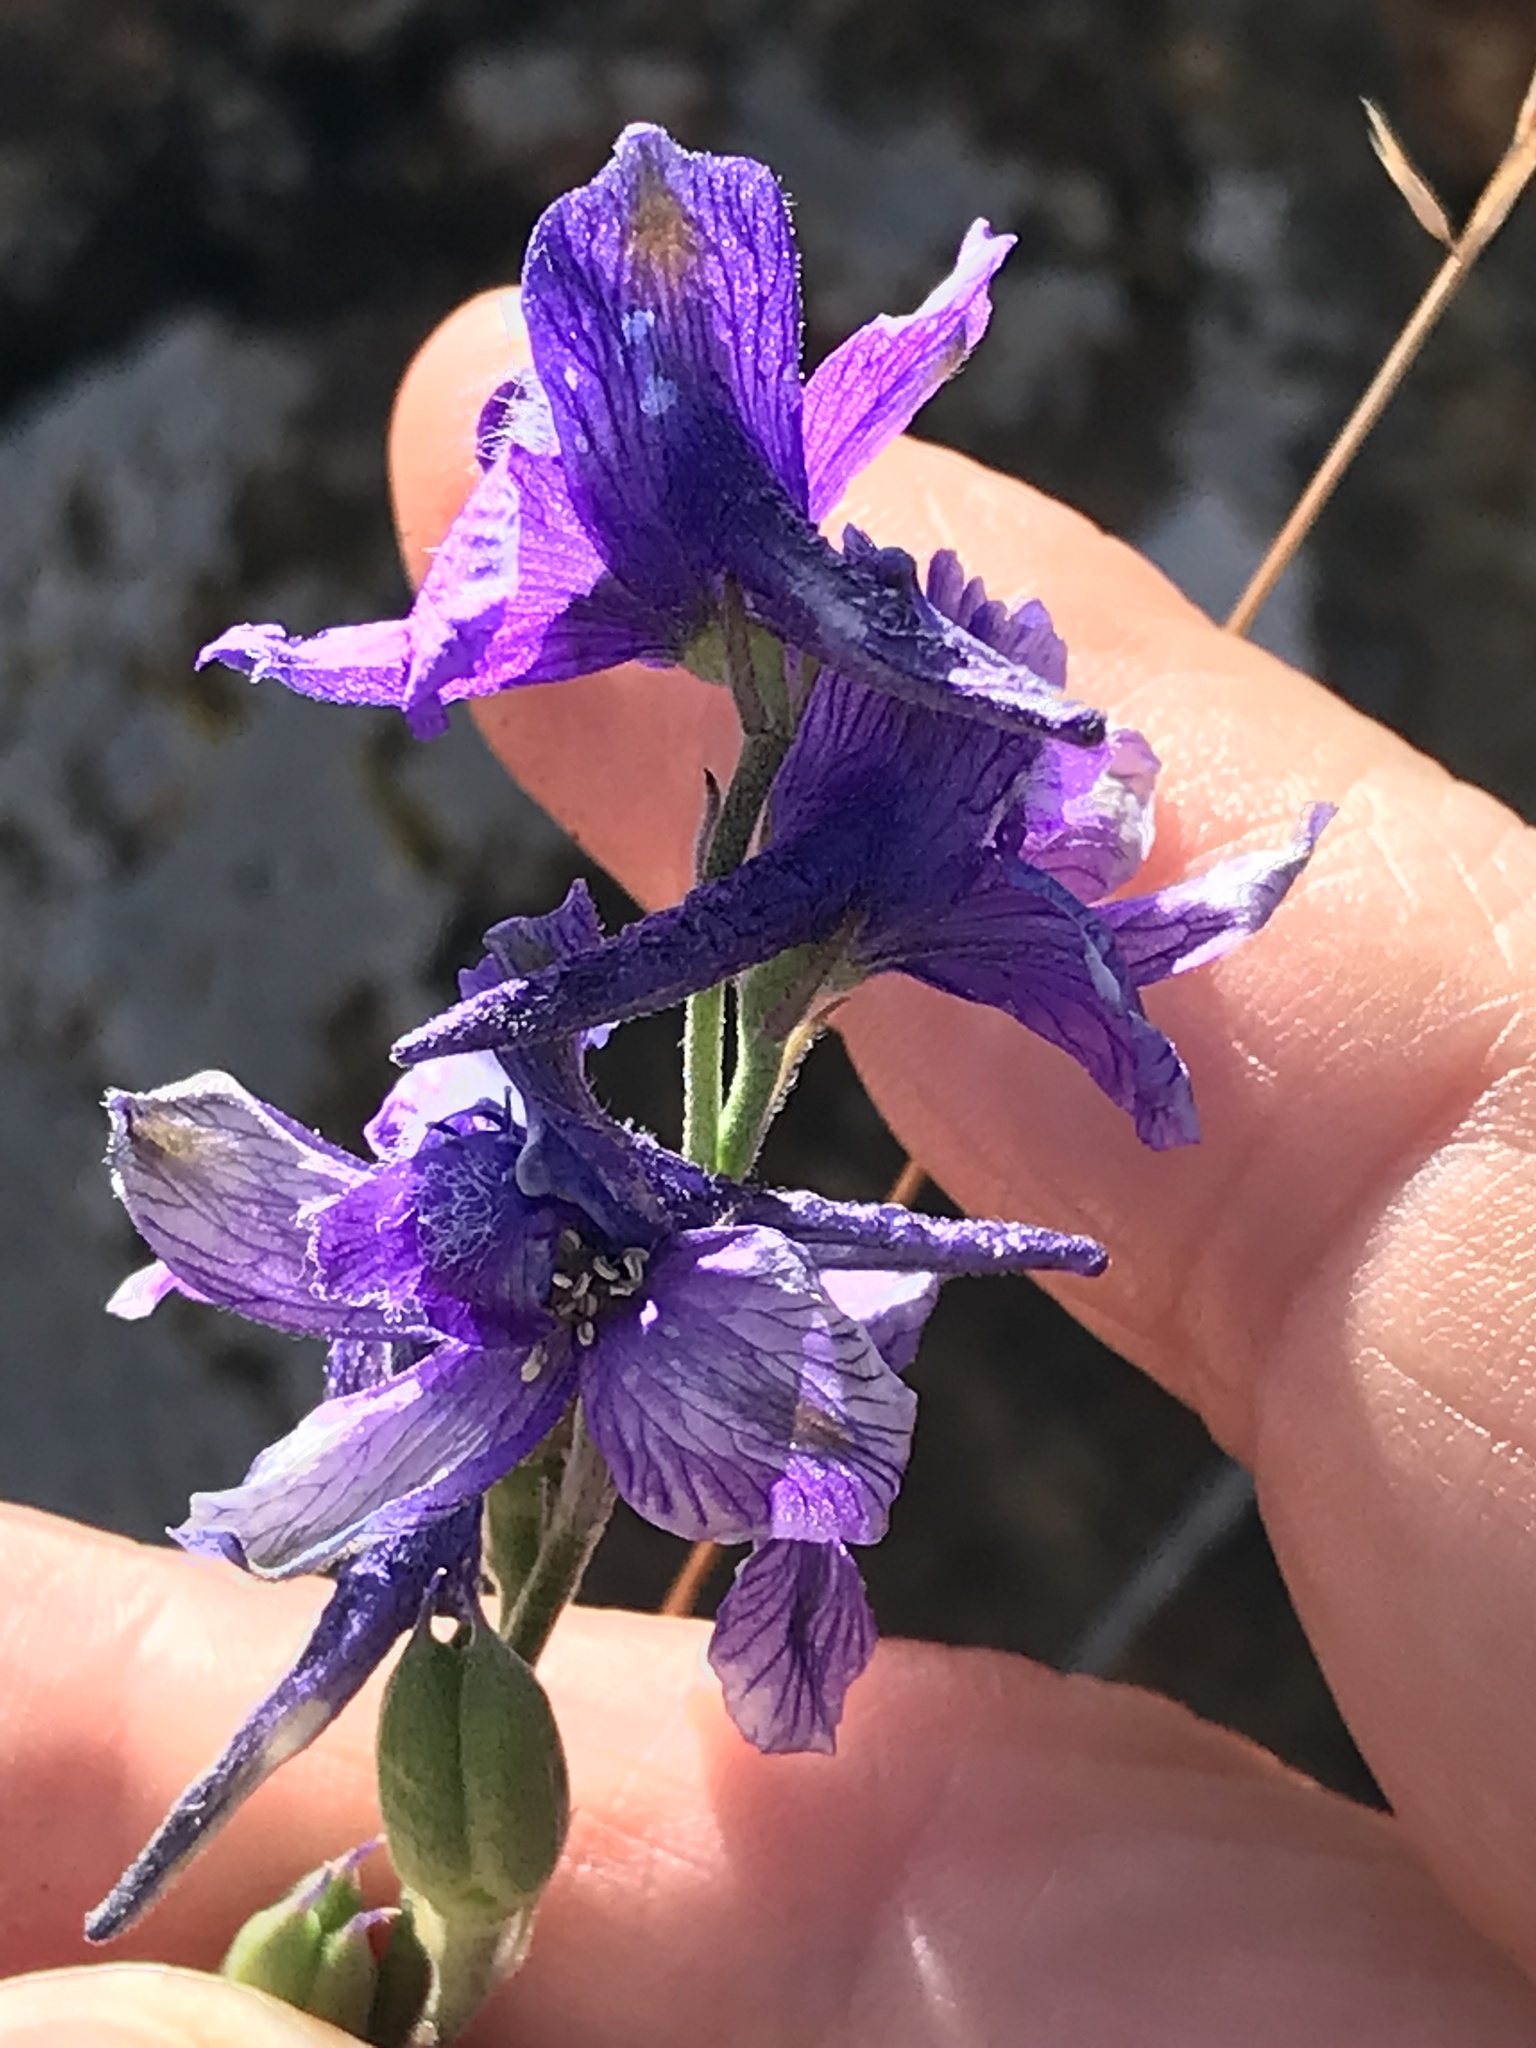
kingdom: Plantae
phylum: Tracheophyta
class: Magnoliopsida
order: Ranunculales
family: Ranunculaceae
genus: Delphinium
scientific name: Delphinium hesperium
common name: Western larkspur
